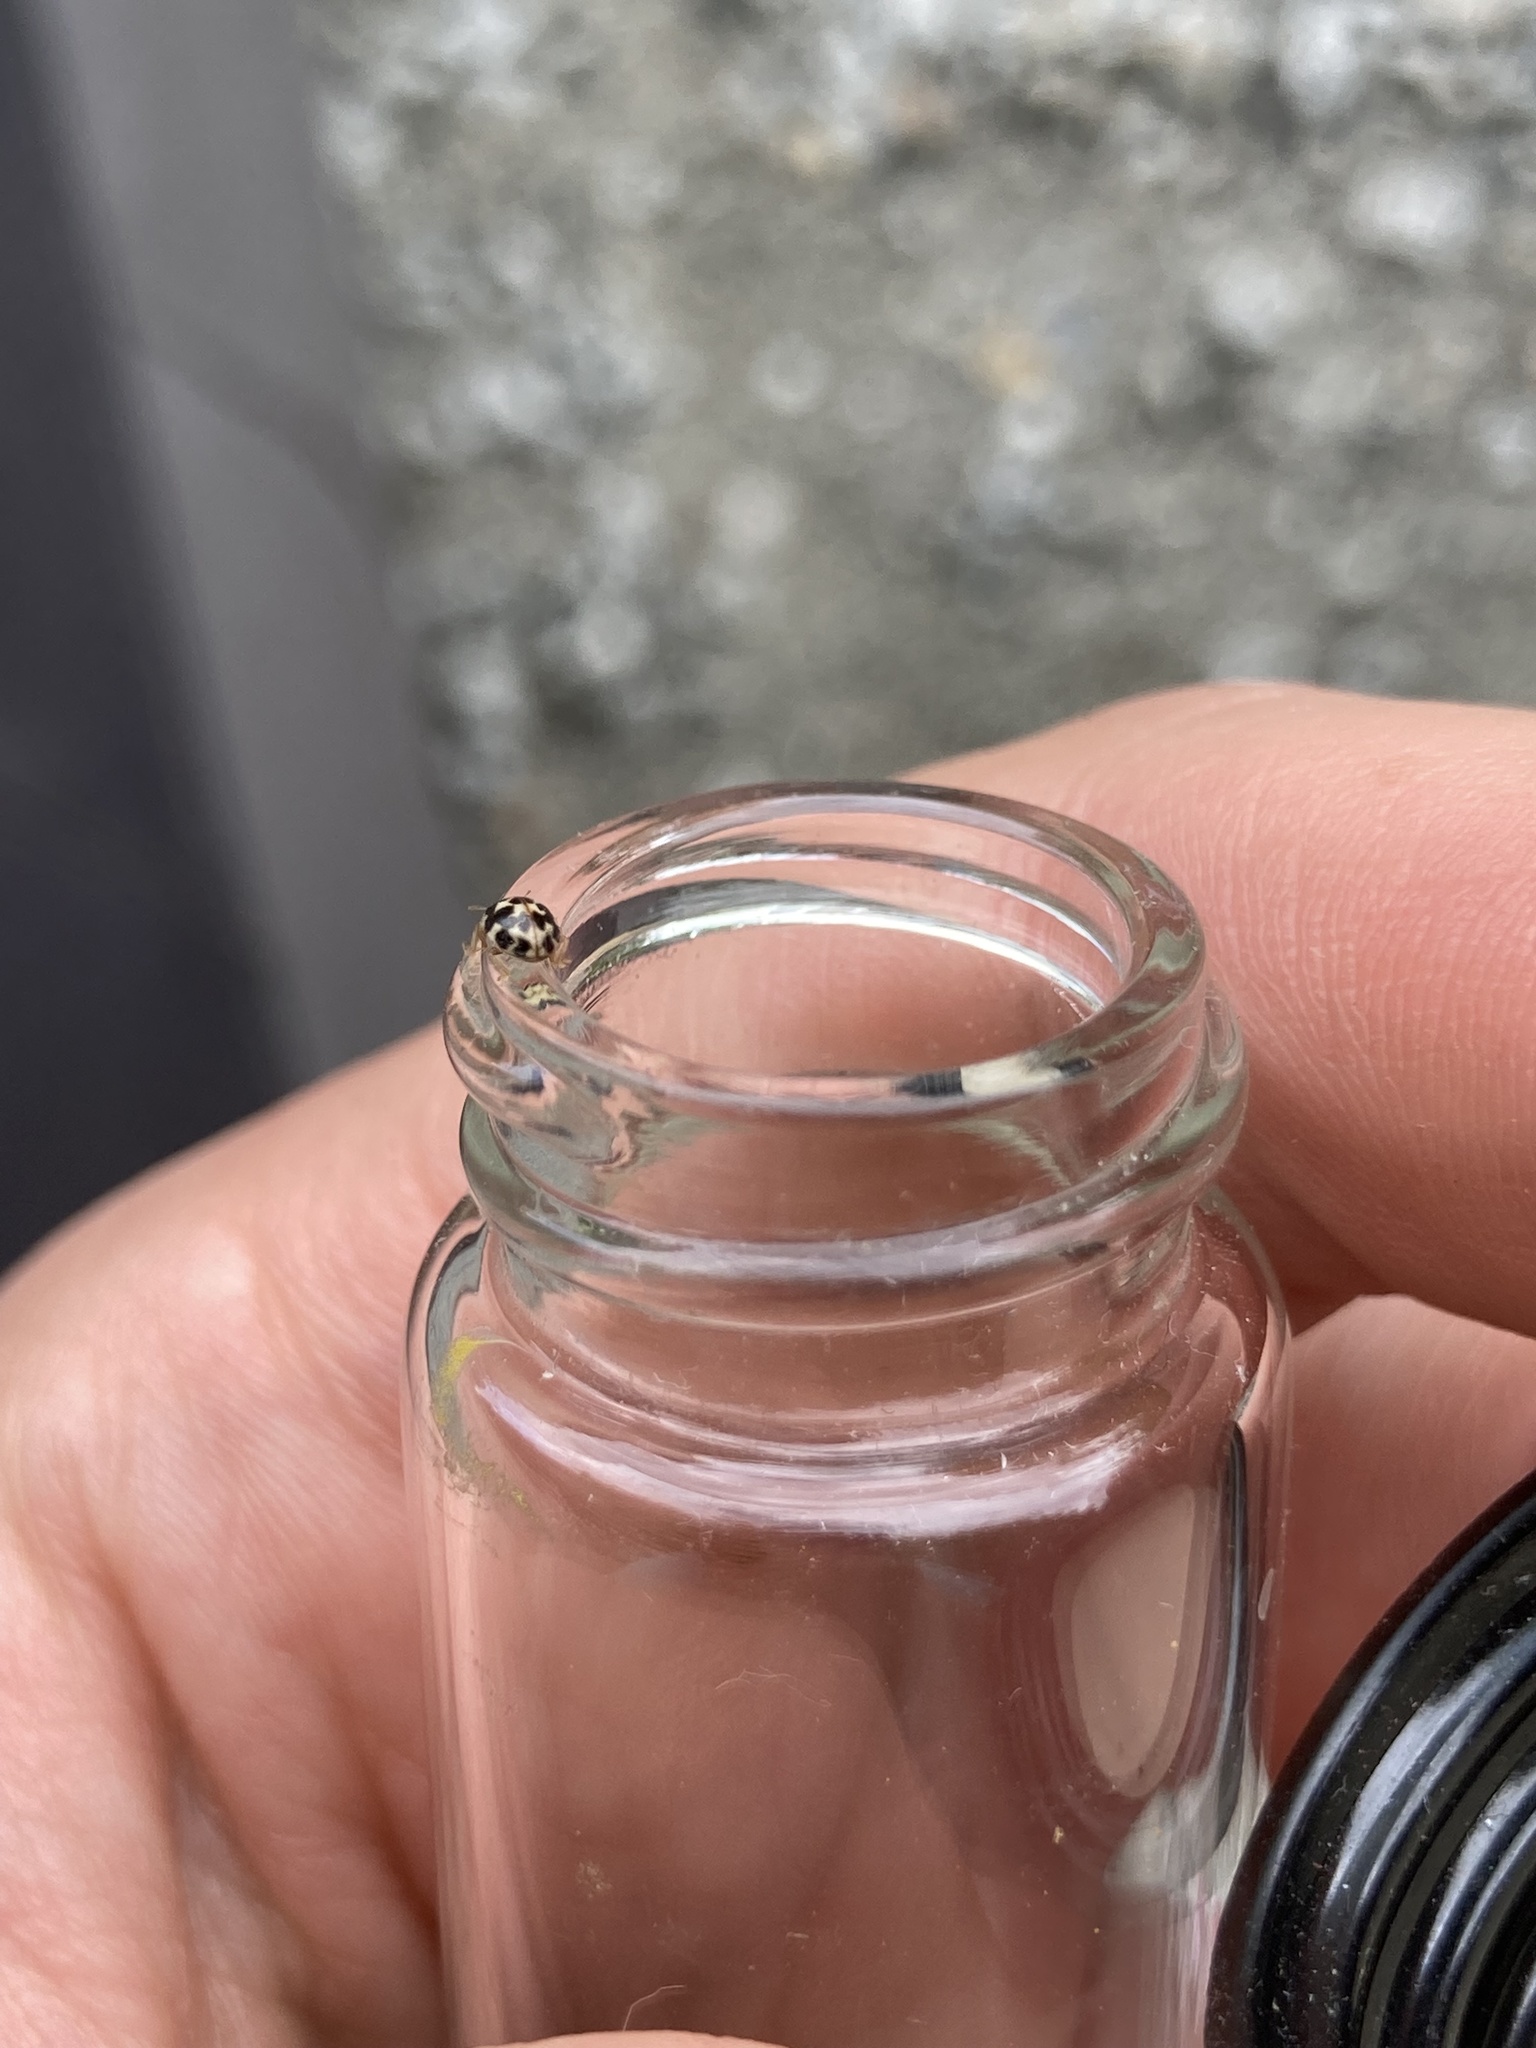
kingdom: Animalia
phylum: Arthropoda
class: Insecta
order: Coleoptera
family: Coccinellidae
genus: Psyllobora
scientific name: Psyllobora vigintimaculata
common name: Ladybird beetle
